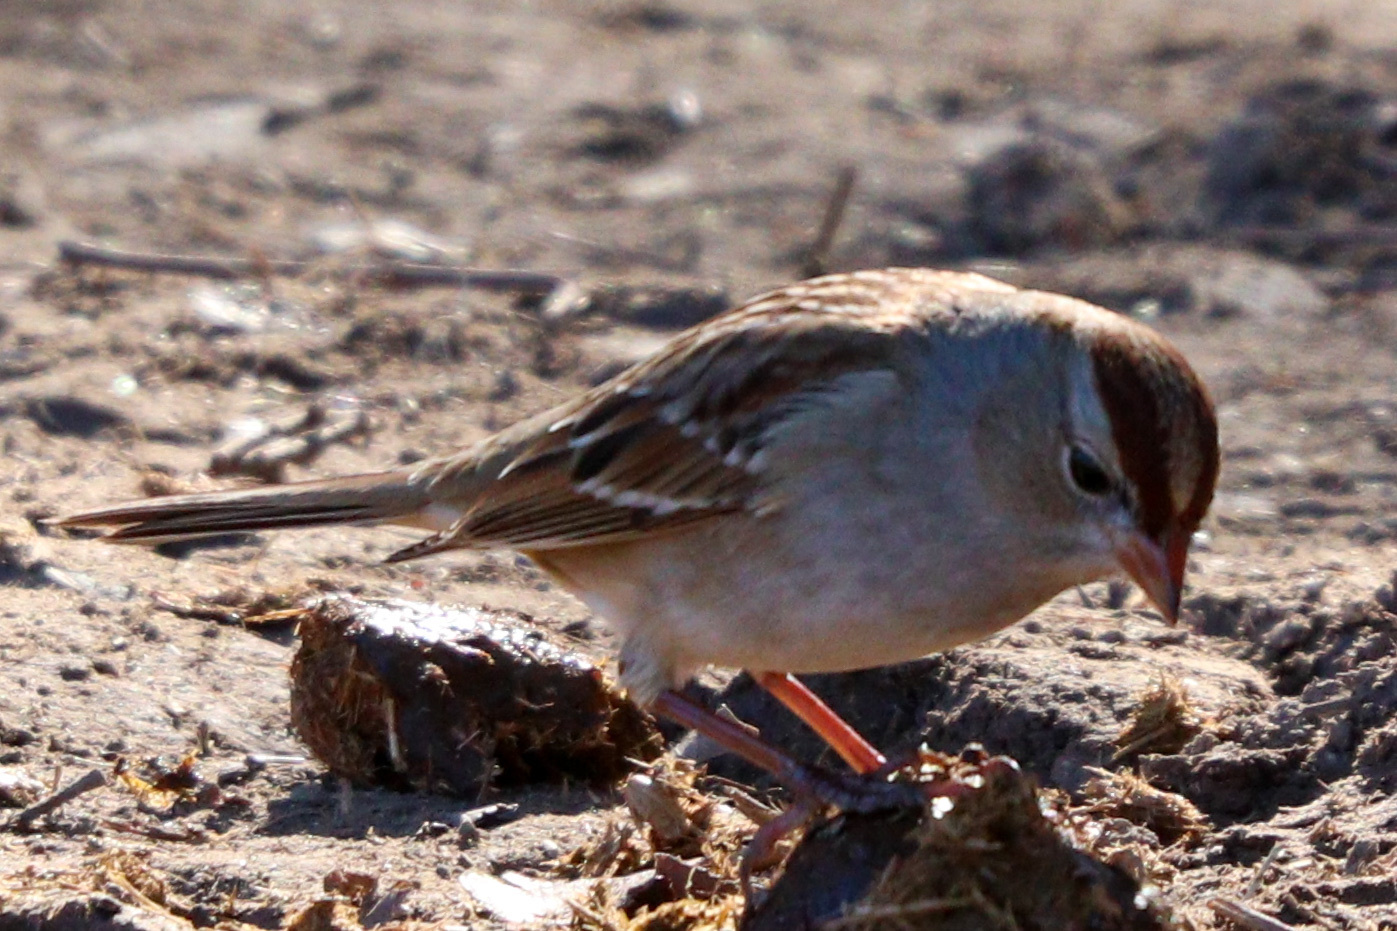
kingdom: Animalia
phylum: Chordata
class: Aves
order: Passeriformes
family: Passerellidae
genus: Zonotrichia
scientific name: Zonotrichia leucophrys
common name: White-crowned sparrow
